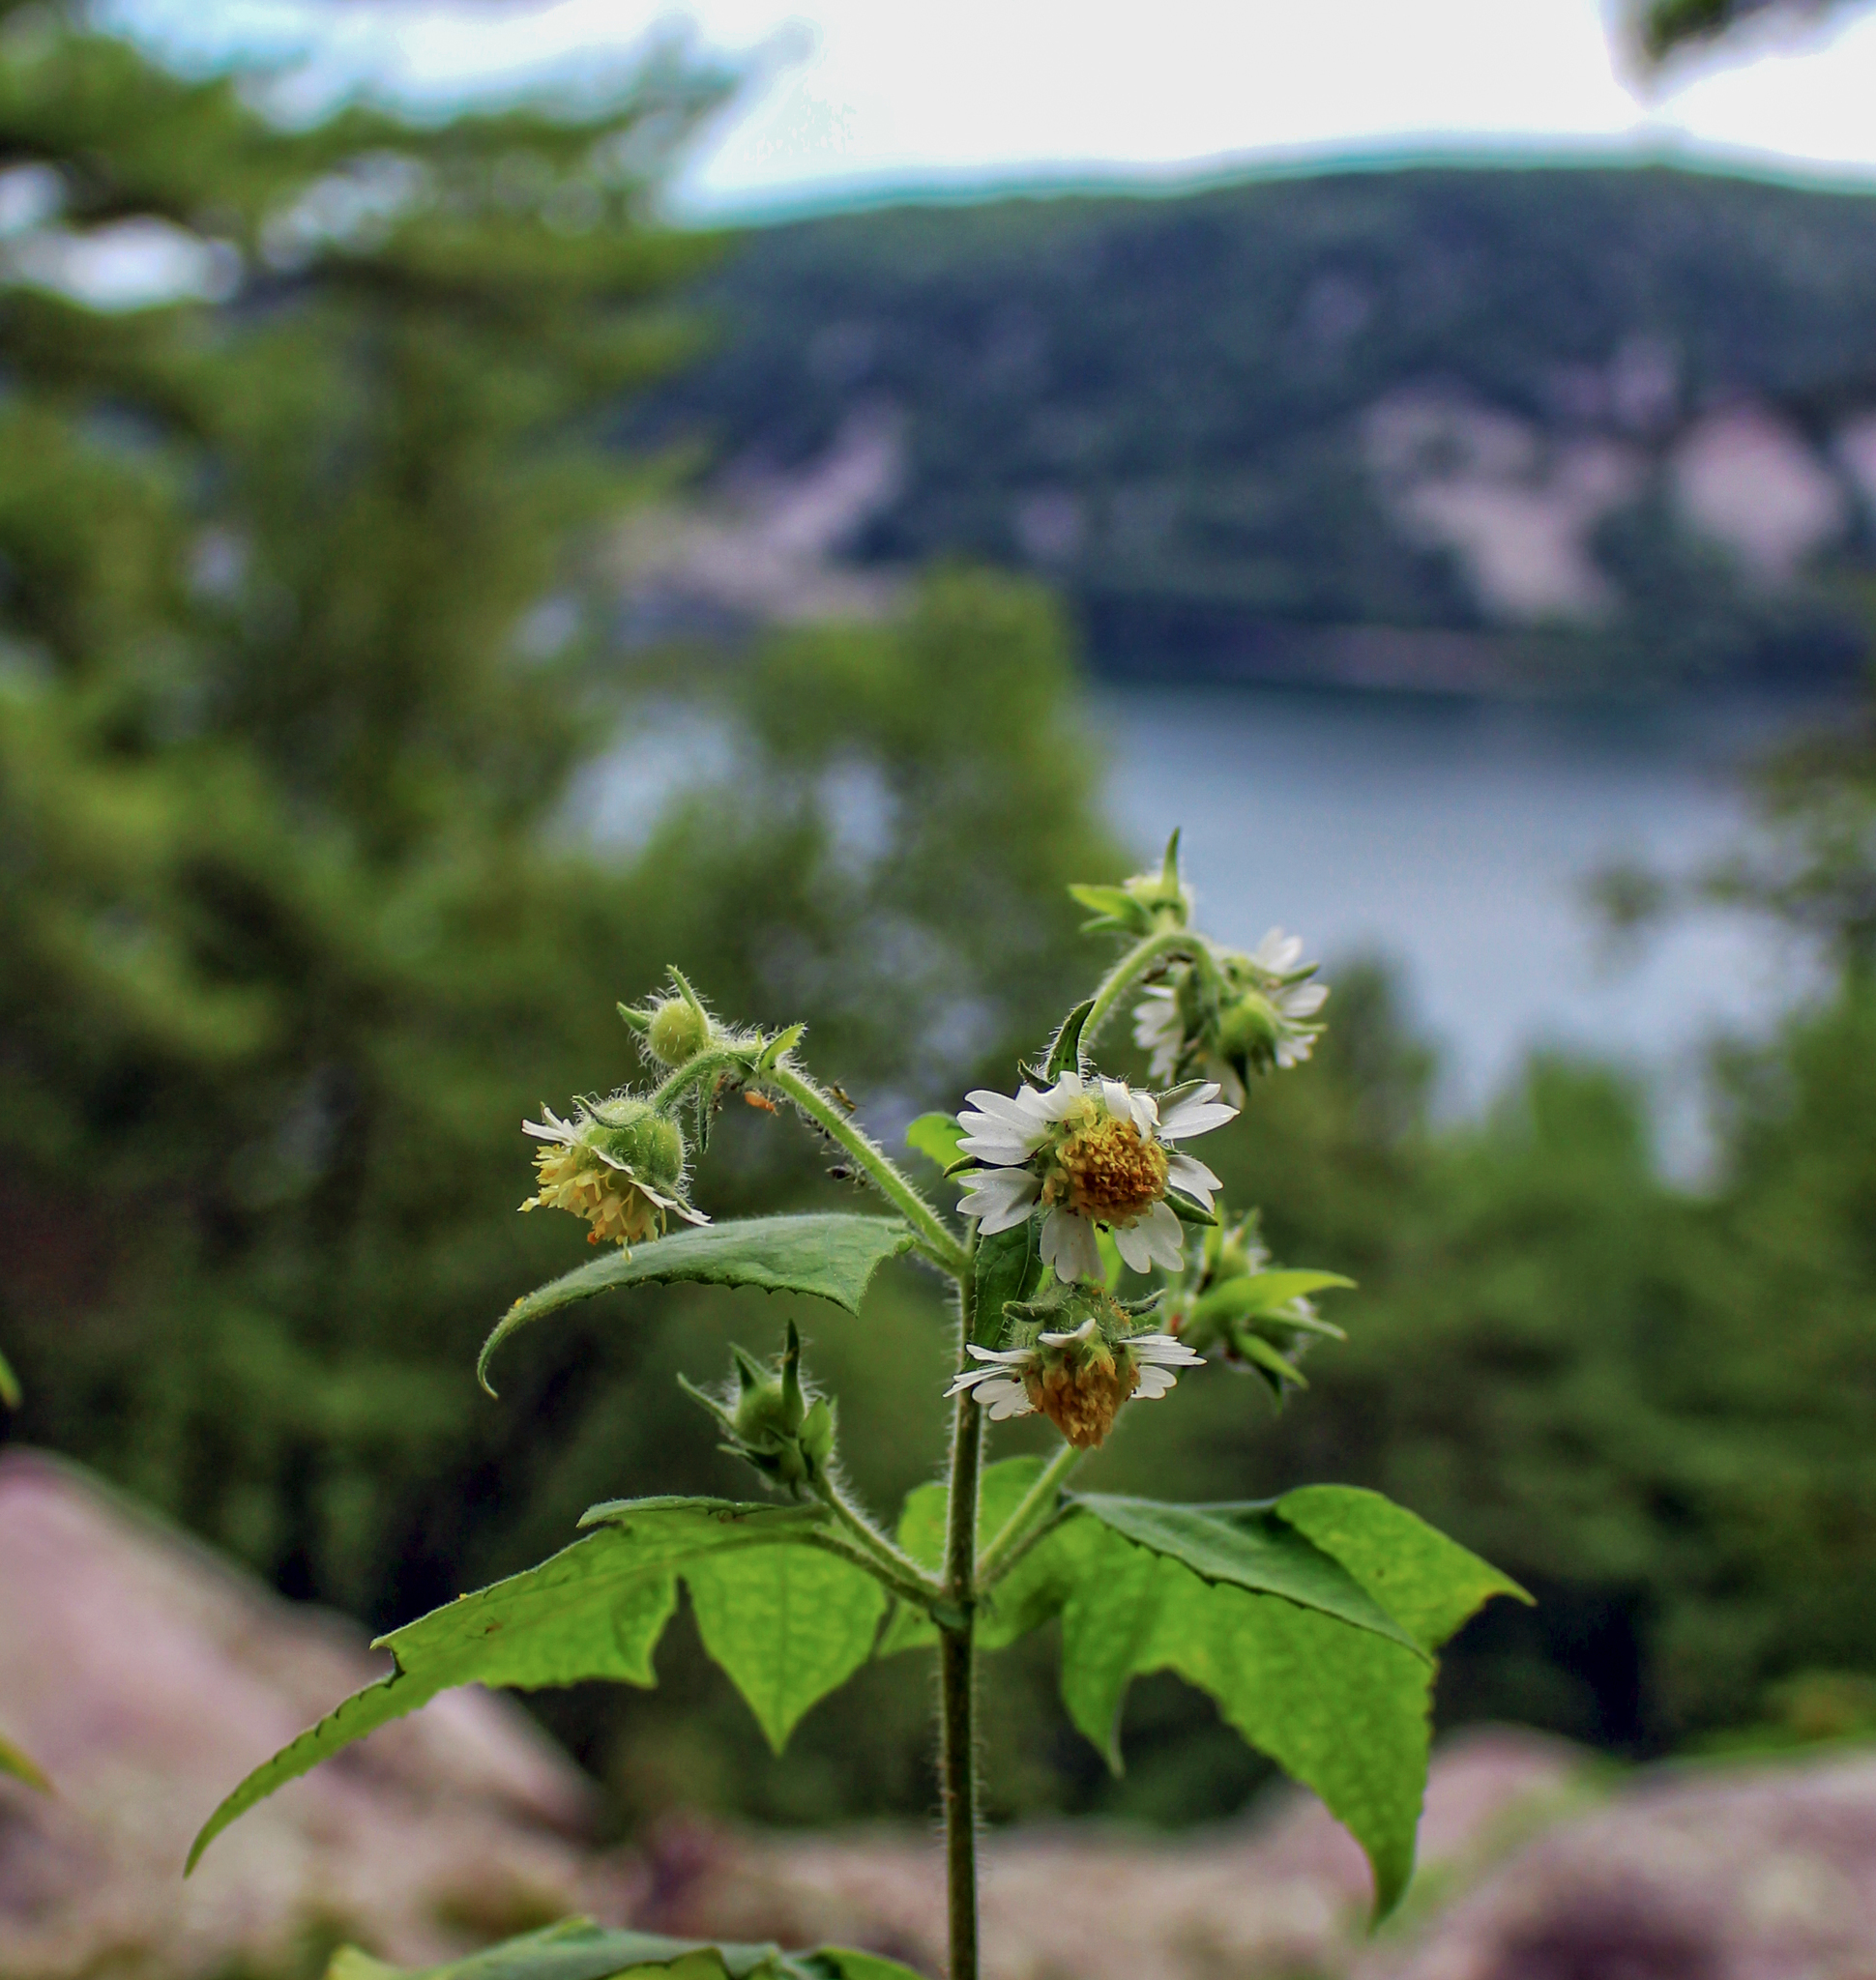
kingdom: Plantae
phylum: Tracheophyta
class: Magnoliopsida
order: Asterales
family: Asteraceae
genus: Polymnia
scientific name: Polymnia canadensis
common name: Pale-flowered leafcup
